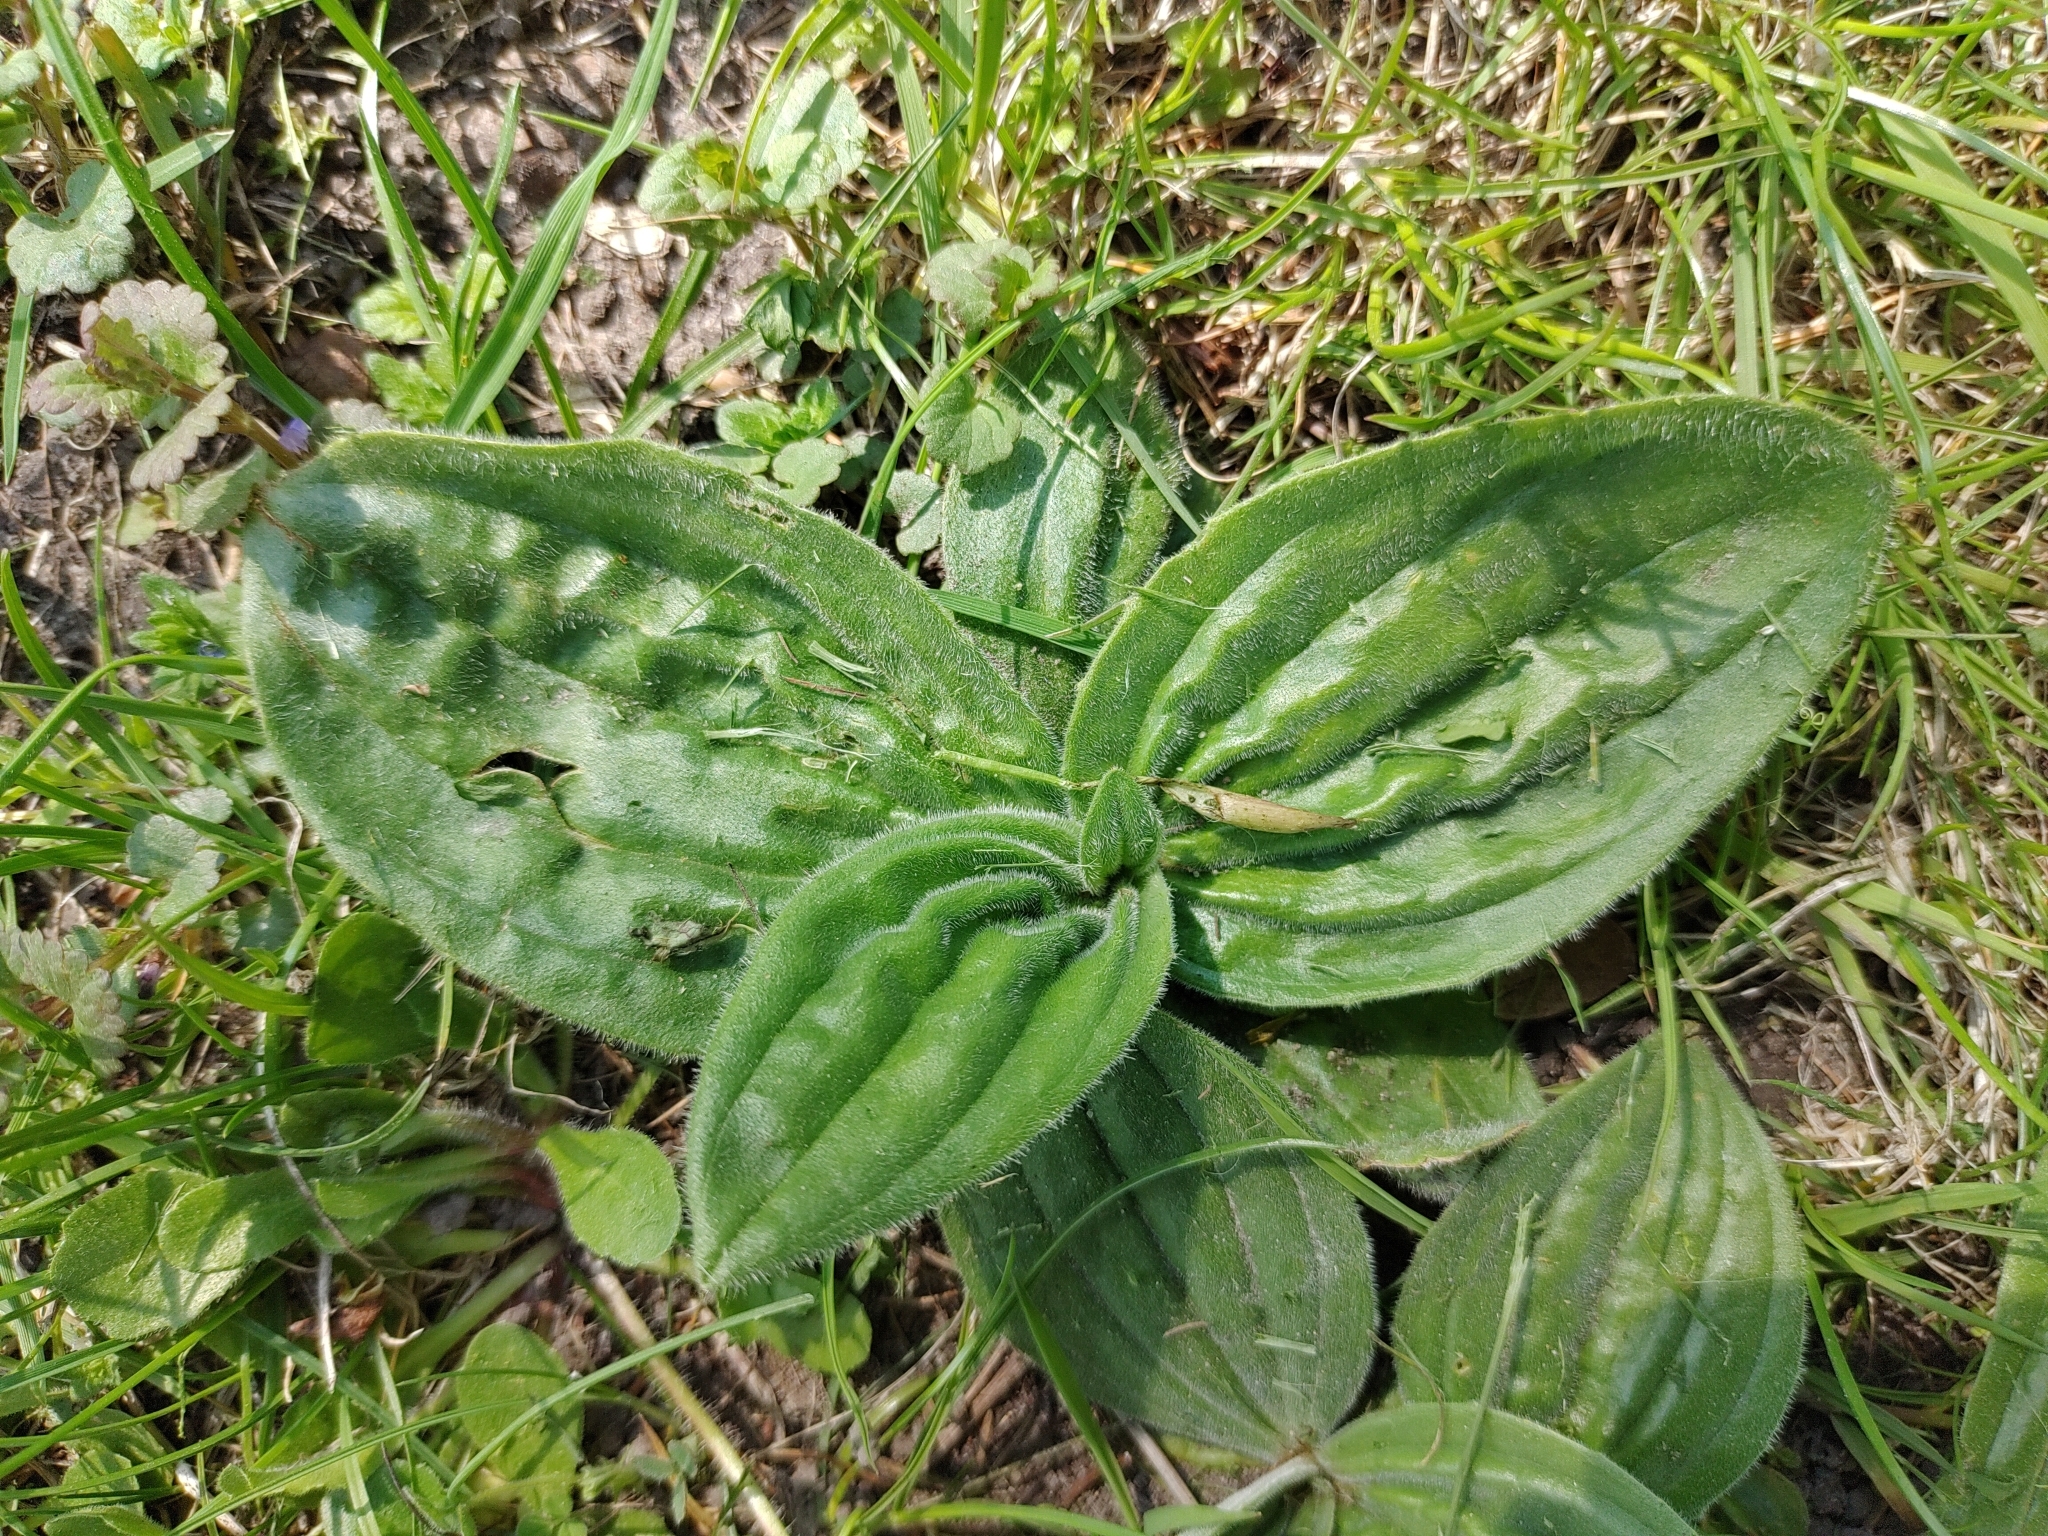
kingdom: Plantae
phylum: Tracheophyta
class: Magnoliopsida
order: Lamiales
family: Plantaginaceae
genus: Plantago
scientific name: Plantago major
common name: Common plantain
